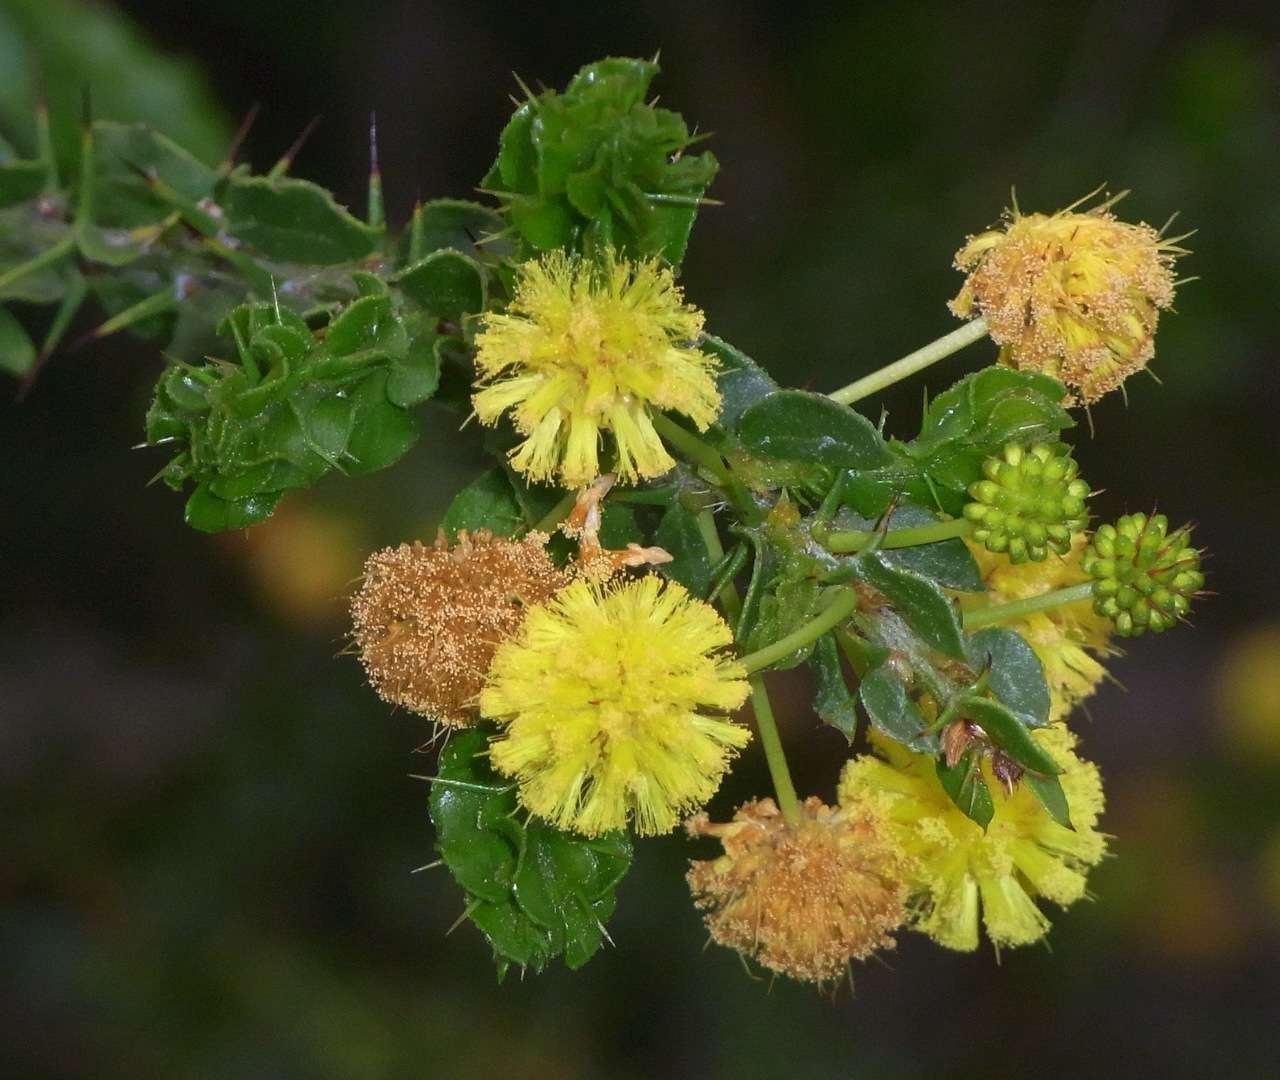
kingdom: Plantae
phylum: Tracheophyta
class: Magnoliopsida
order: Fabales
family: Fabaceae
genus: Acacia
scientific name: Acacia paradoxa
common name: Paradox acacia
